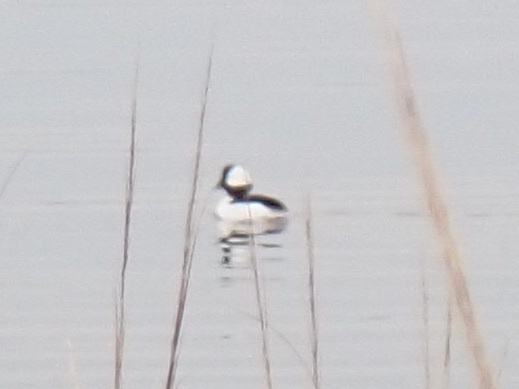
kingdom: Animalia
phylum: Chordata
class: Aves
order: Anseriformes
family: Anatidae
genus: Bucephala
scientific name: Bucephala albeola
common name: Bufflehead
